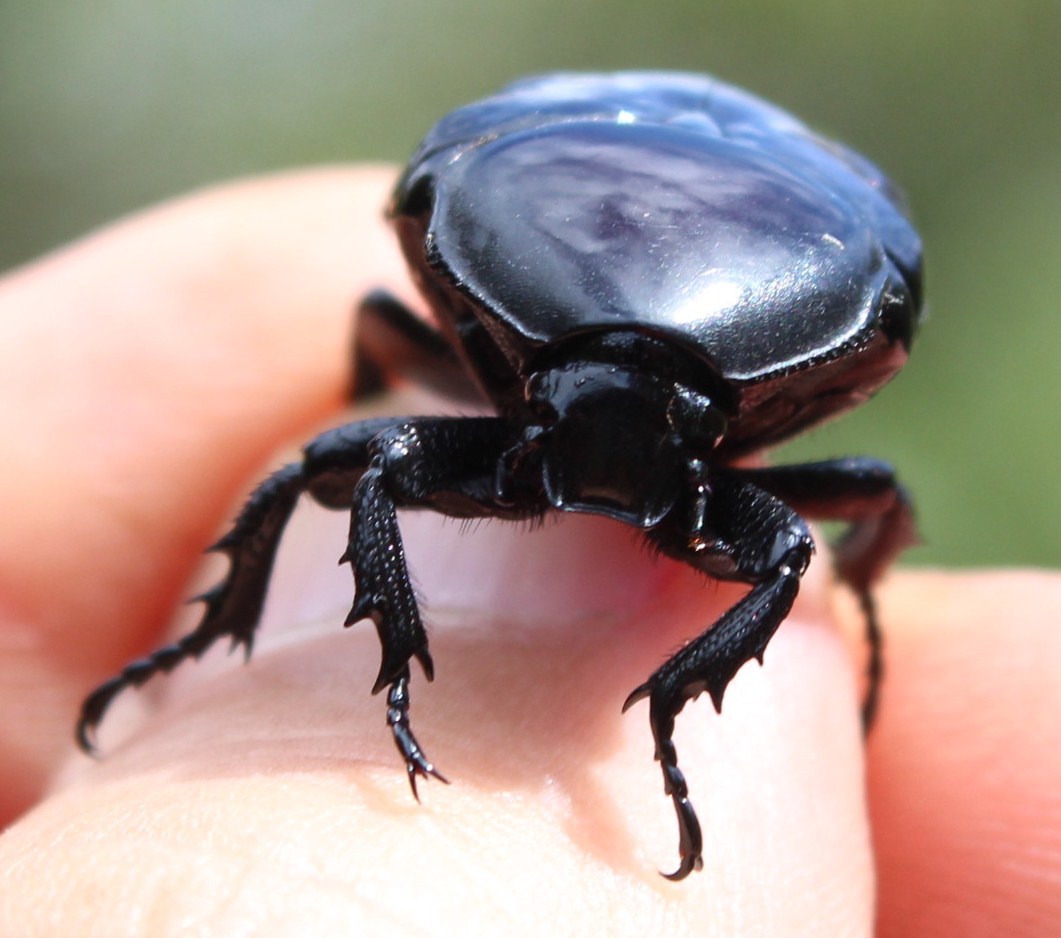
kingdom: Animalia
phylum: Arthropoda
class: Insecta
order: Coleoptera
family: Scarabaeidae
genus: Diplognatha
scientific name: Diplognatha gagates
